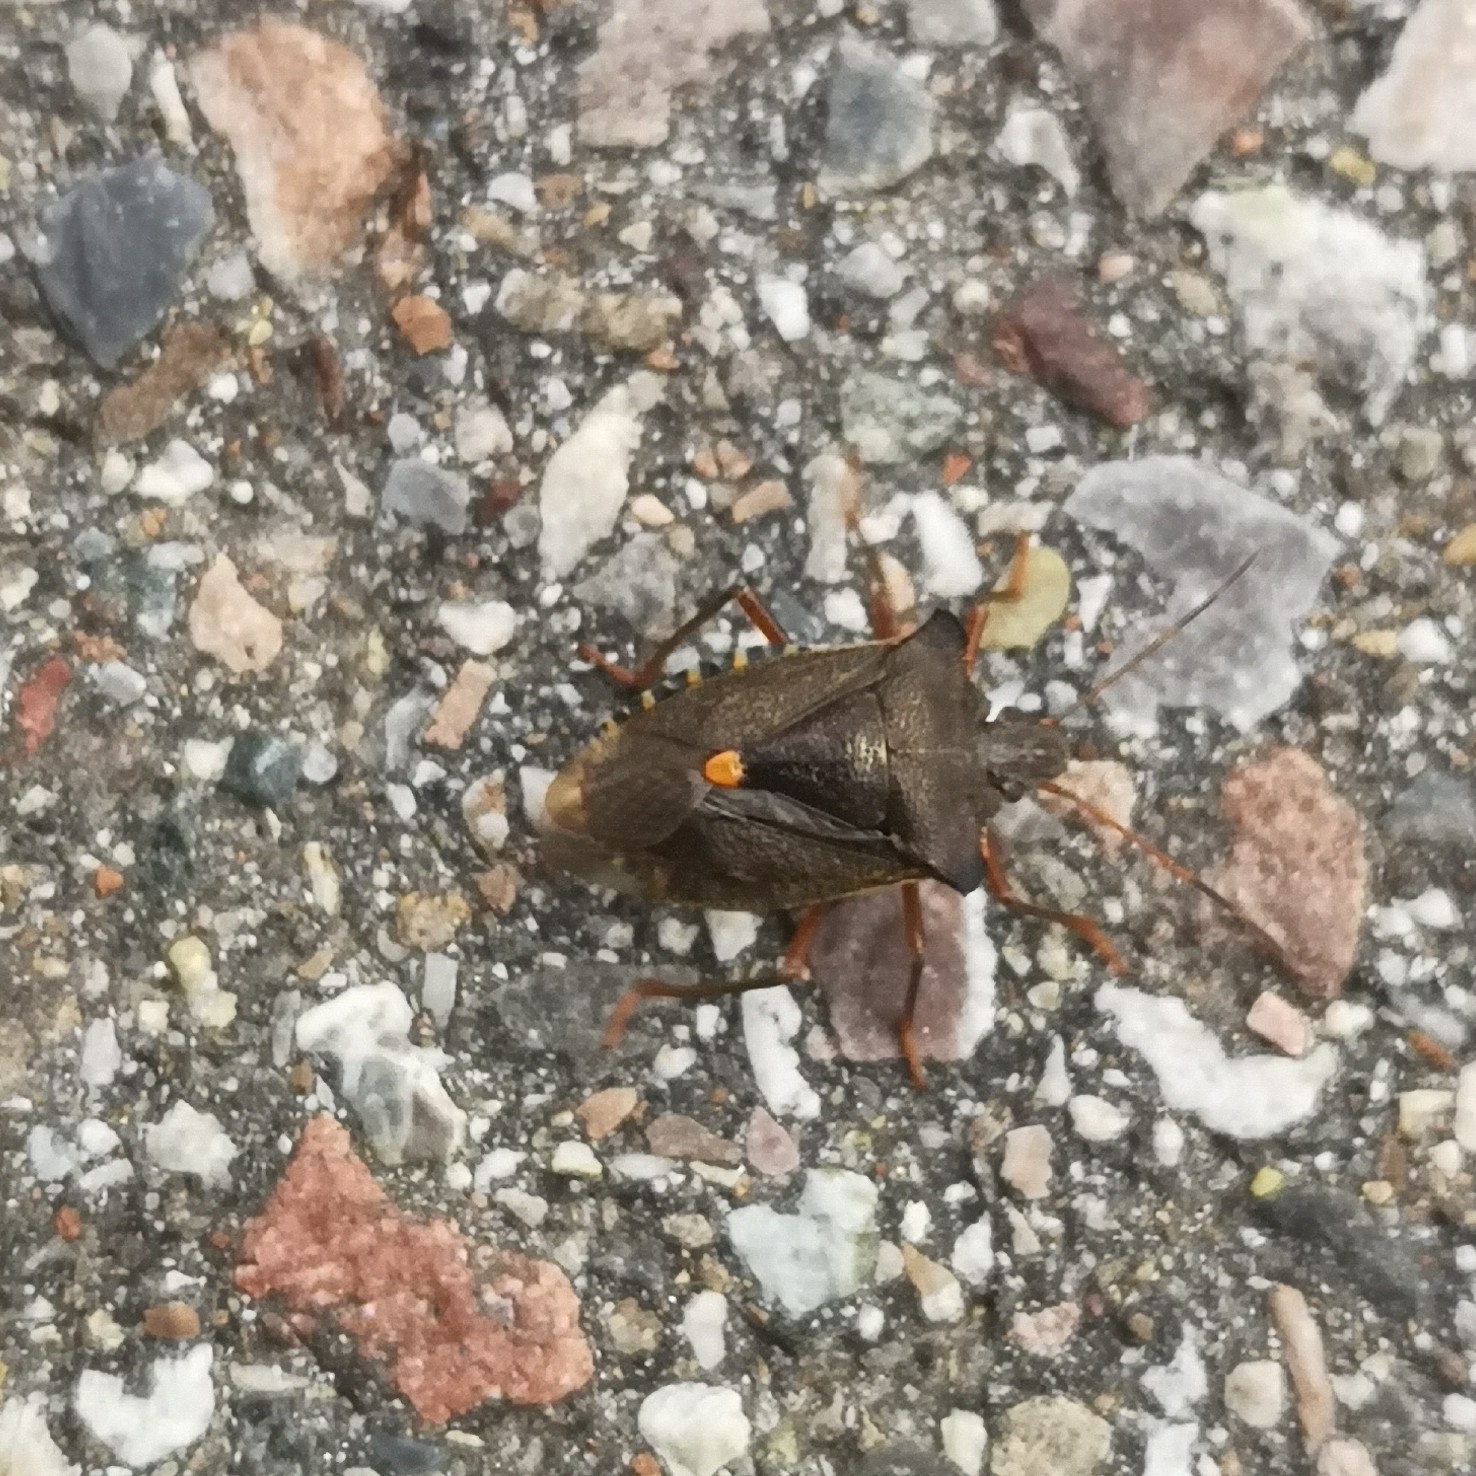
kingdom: Animalia
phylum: Arthropoda
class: Insecta
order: Hemiptera
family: Pentatomidae
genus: Pentatoma
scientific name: Pentatoma rufipes
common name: Forest bug
